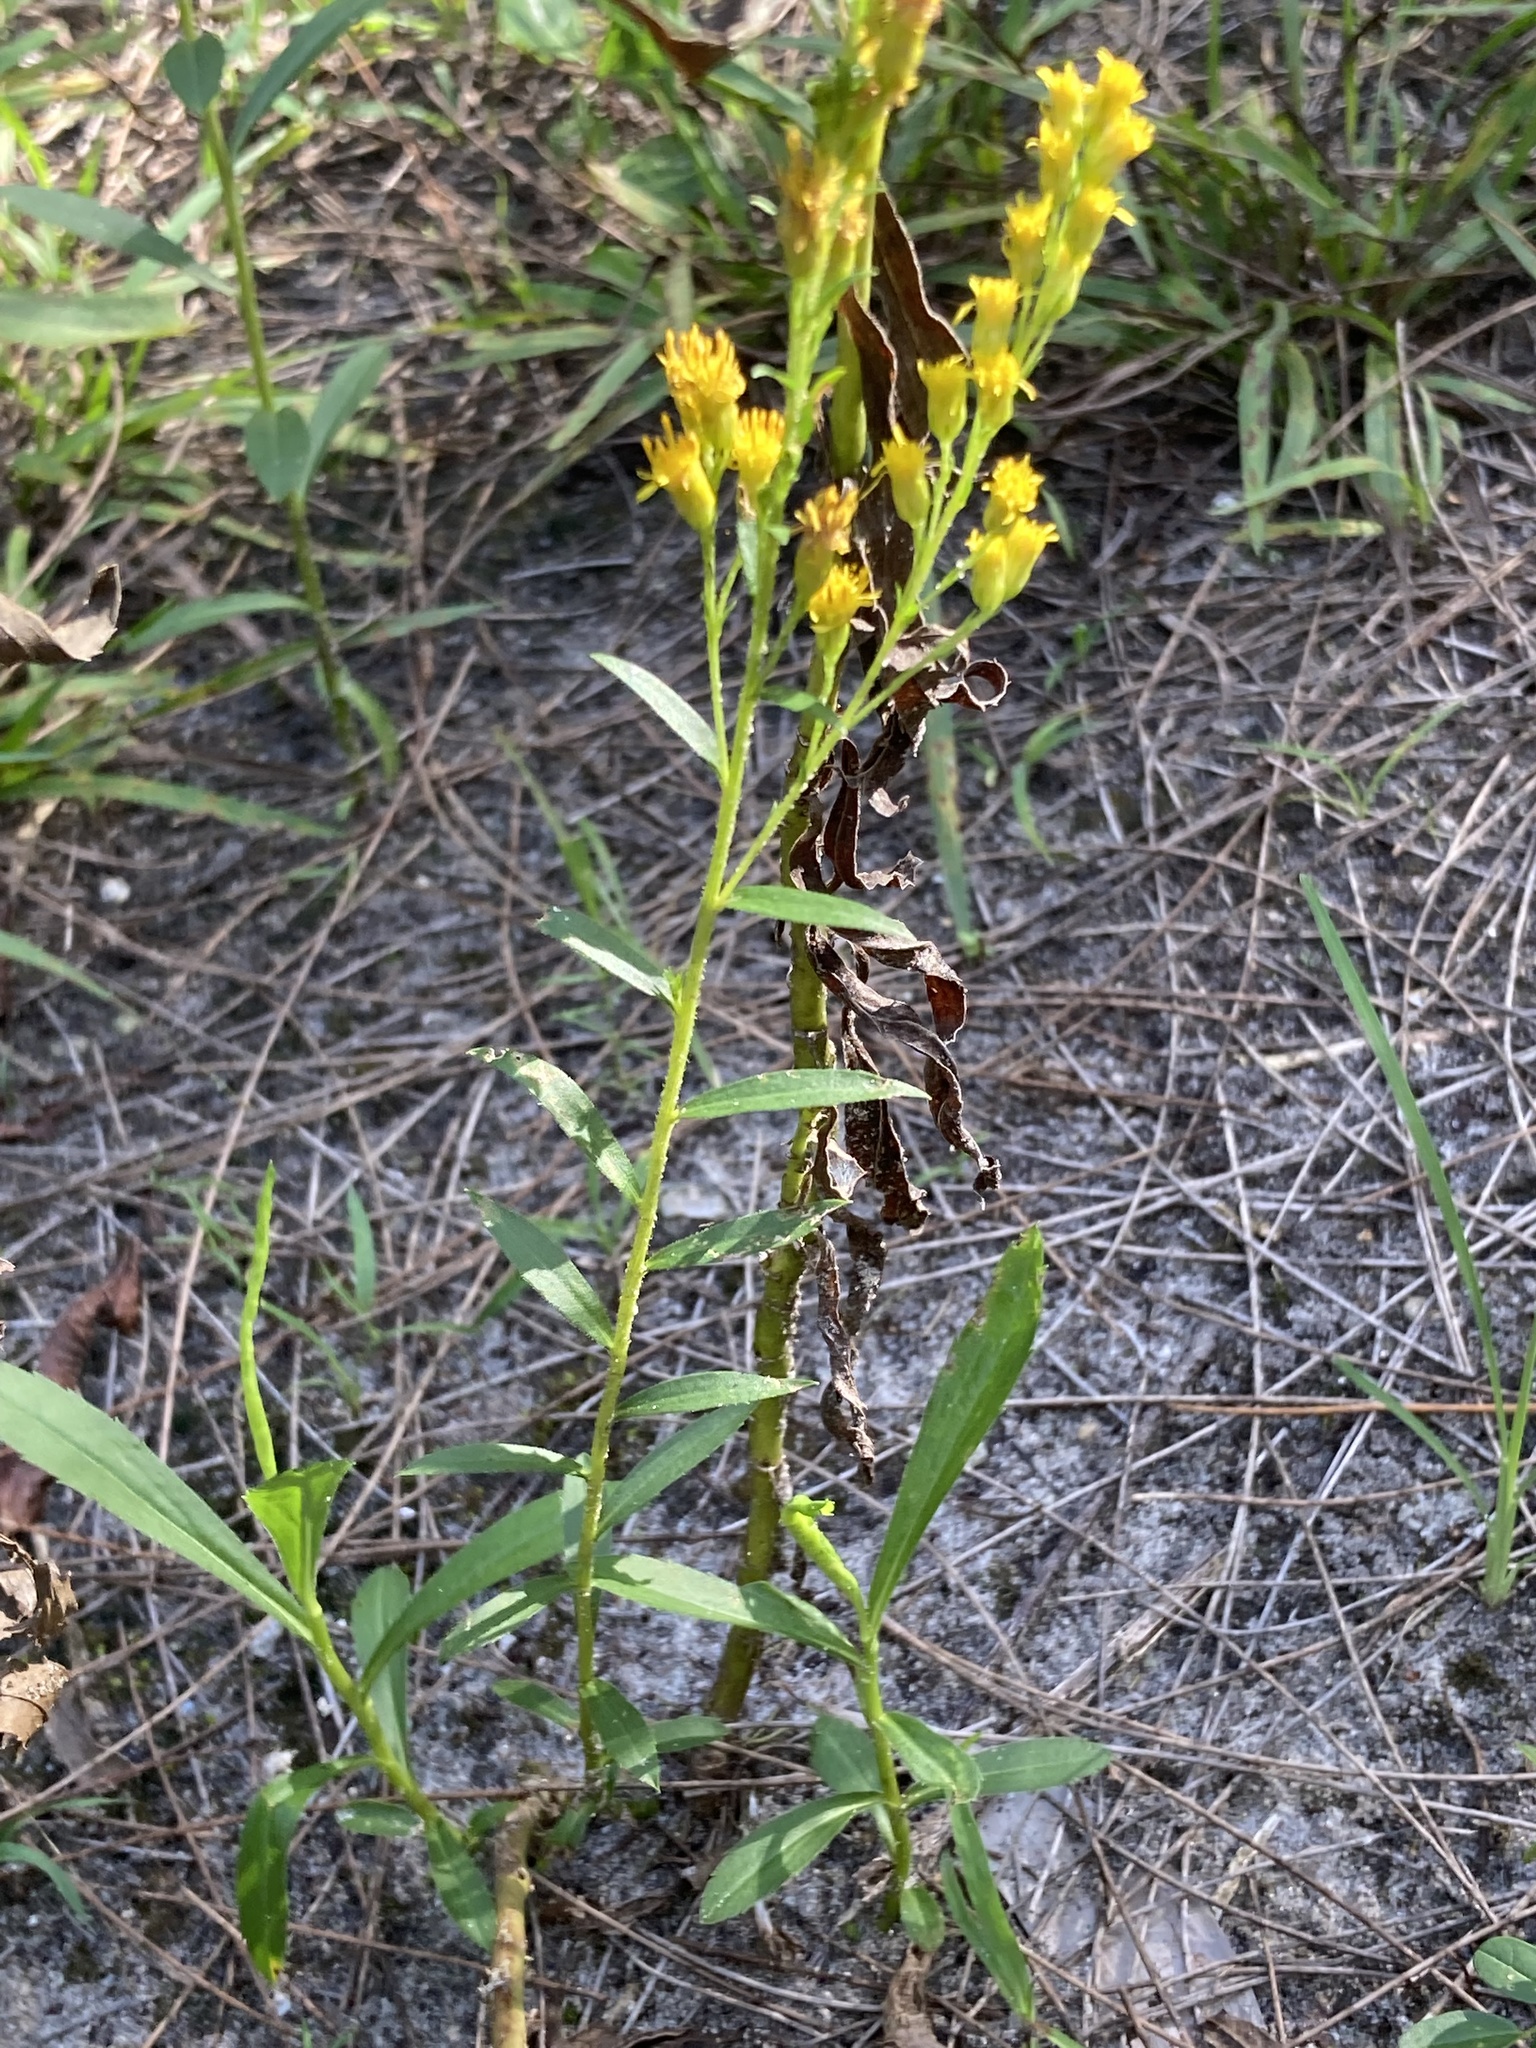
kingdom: Plantae
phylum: Tracheophyta
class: Magnoliopsida
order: Asterales
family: Asteraceae
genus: Solidago
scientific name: Solidago leavenworthii
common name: Leavenworth's goldenrod
